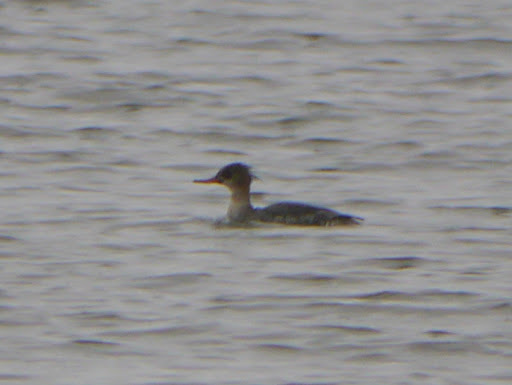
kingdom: Animalia
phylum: Chordata
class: Aves
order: Anseriformes
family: Anatidae
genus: Mergus
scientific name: Mergus serrator
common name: Red-breasted merganser
